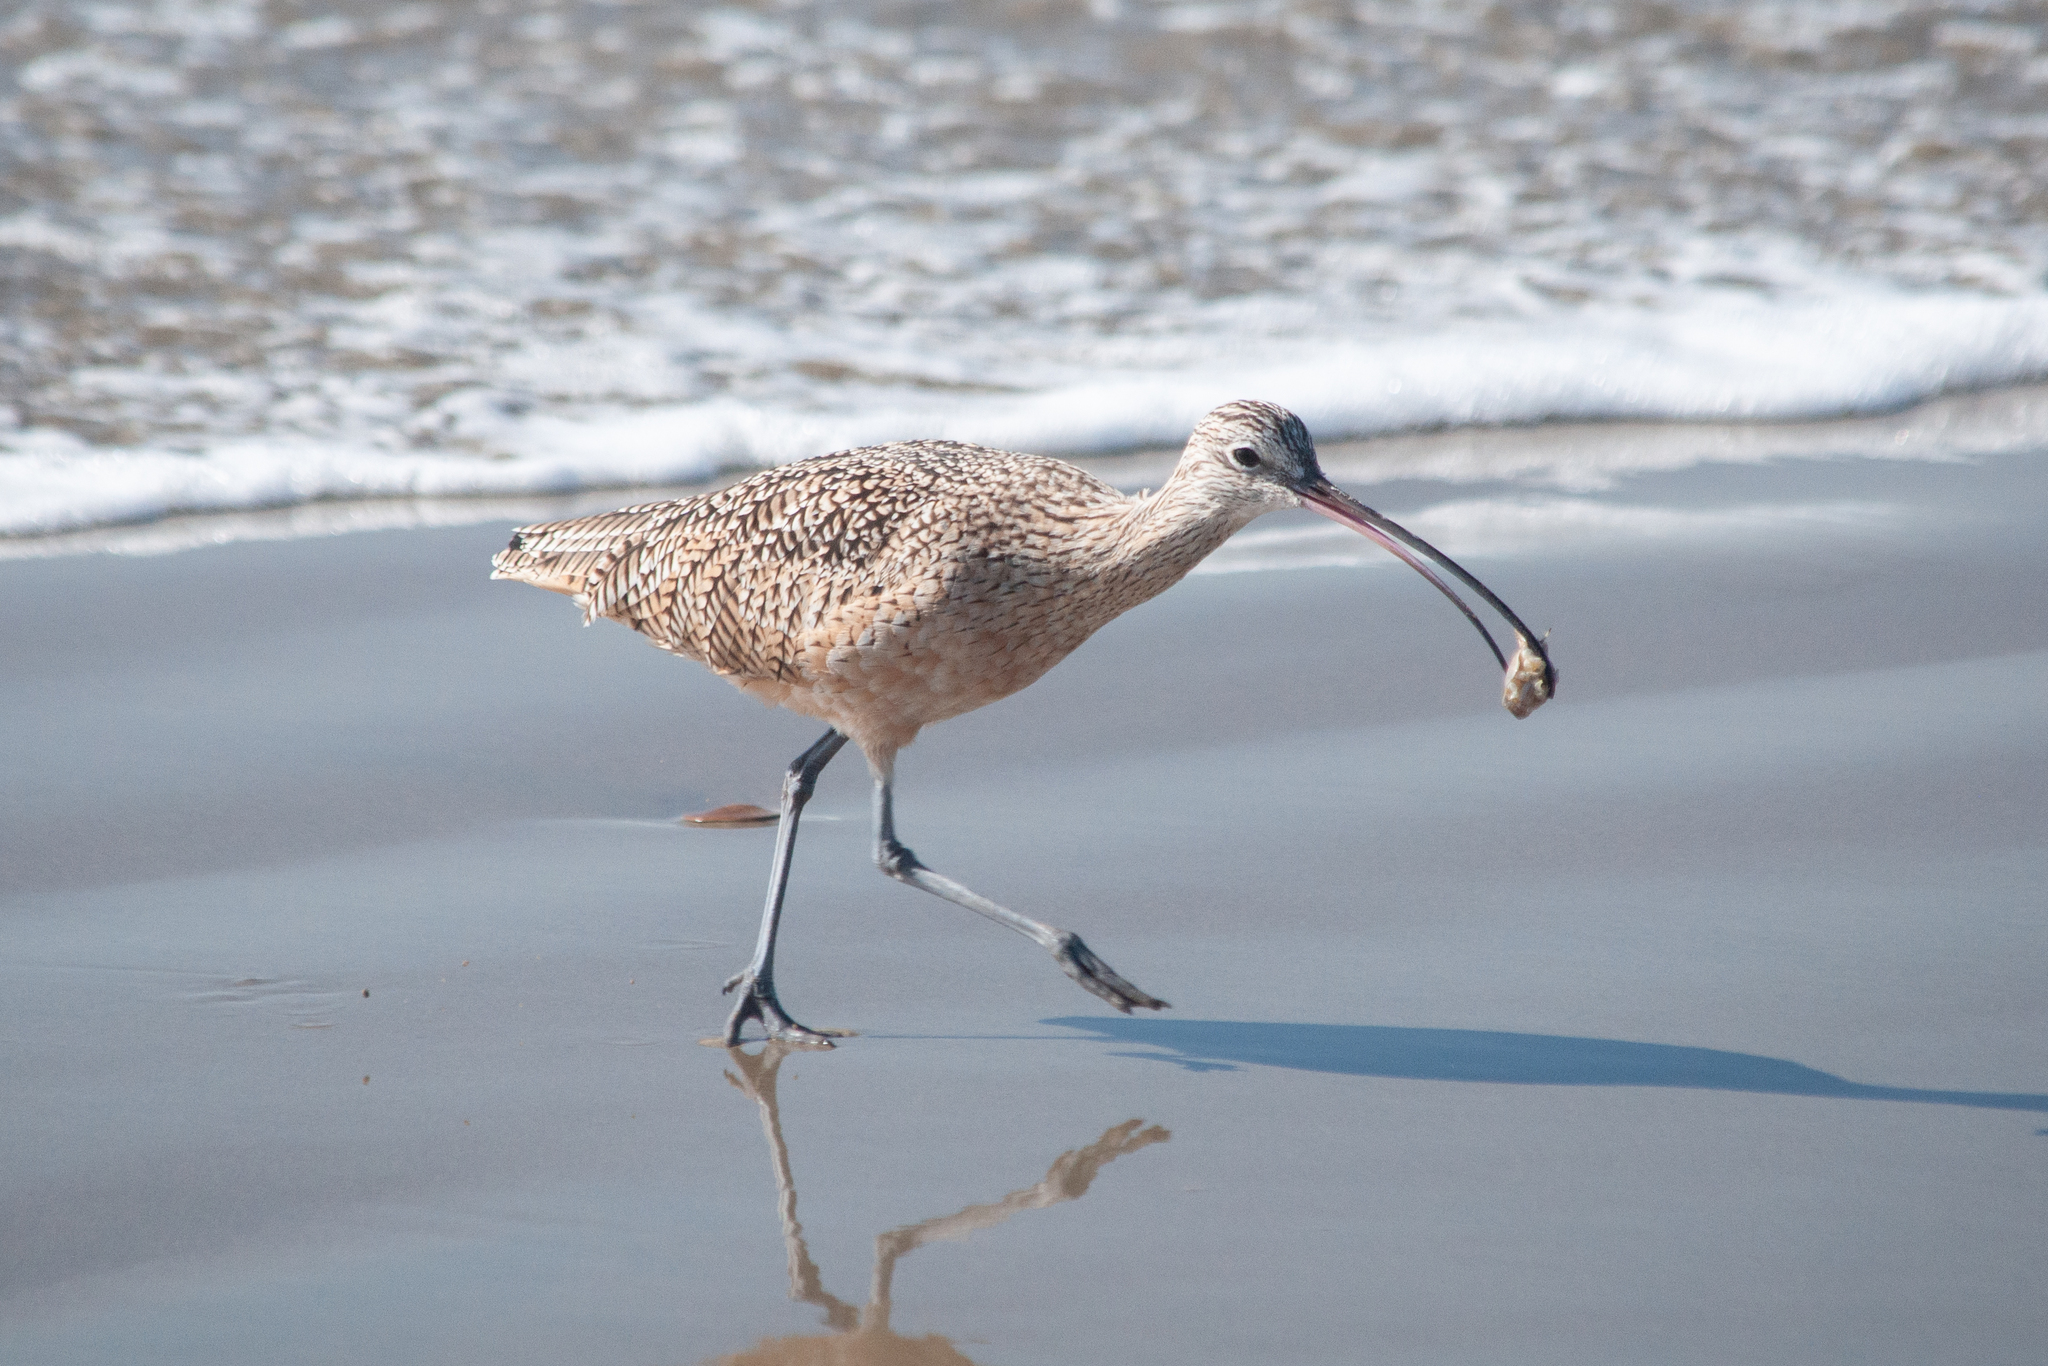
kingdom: Animalia
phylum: Chordata
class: Aves
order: Charadriiformes
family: Scolopacidae
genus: Numenius
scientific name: Numenius americanus
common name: Long-billed curlew
